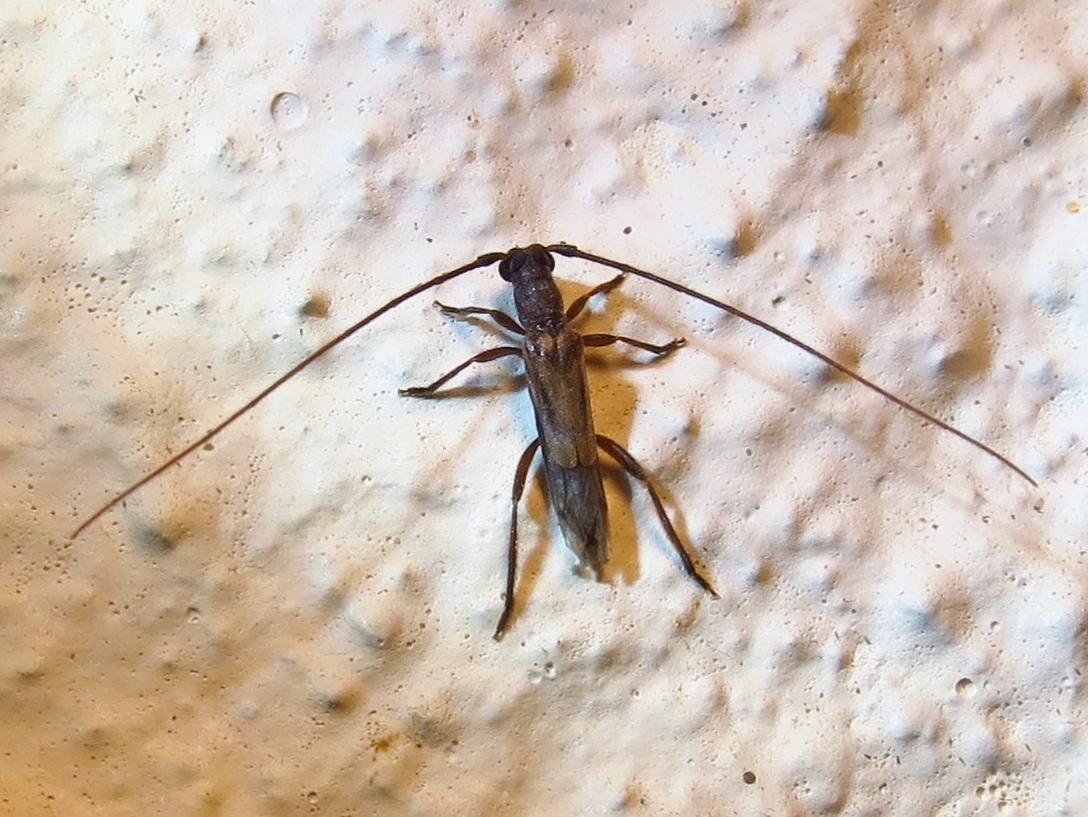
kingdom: Animalia
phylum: Arthropoda
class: Insecta
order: Coleoptera
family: Cerambycidae
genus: Methia
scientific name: Methia necydalea
